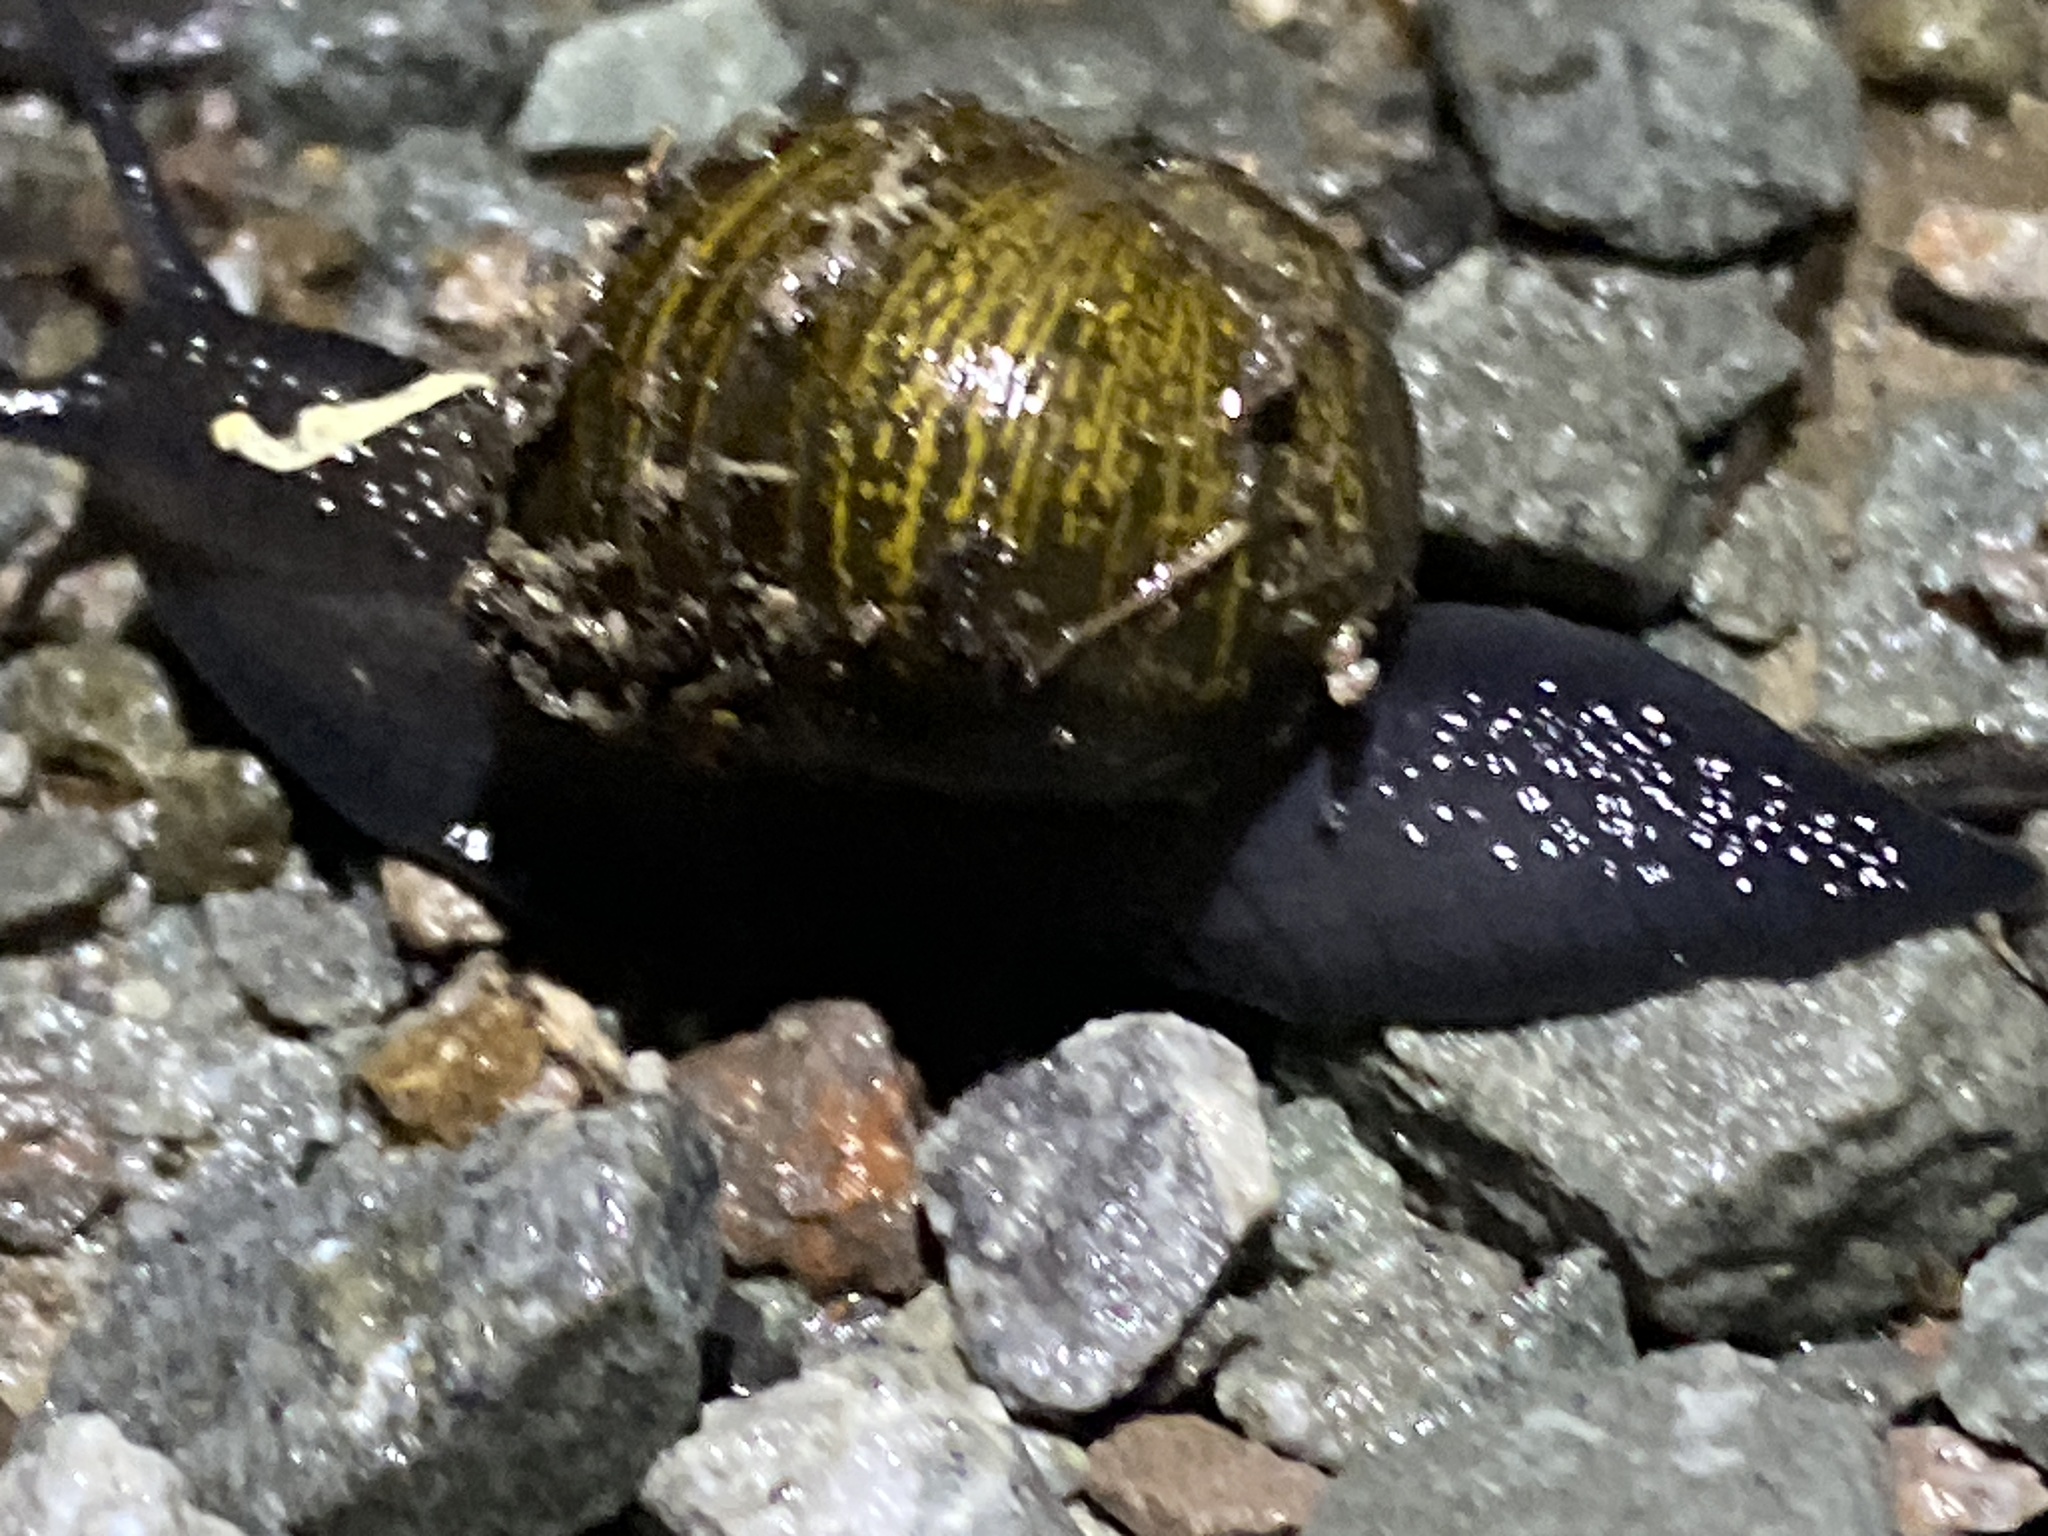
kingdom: Animalia
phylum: Mollusca
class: Gastropoda
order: Stylommatophora
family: Helicidae
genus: Cantareus
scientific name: Cantareus apertus
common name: Green gardensnail
